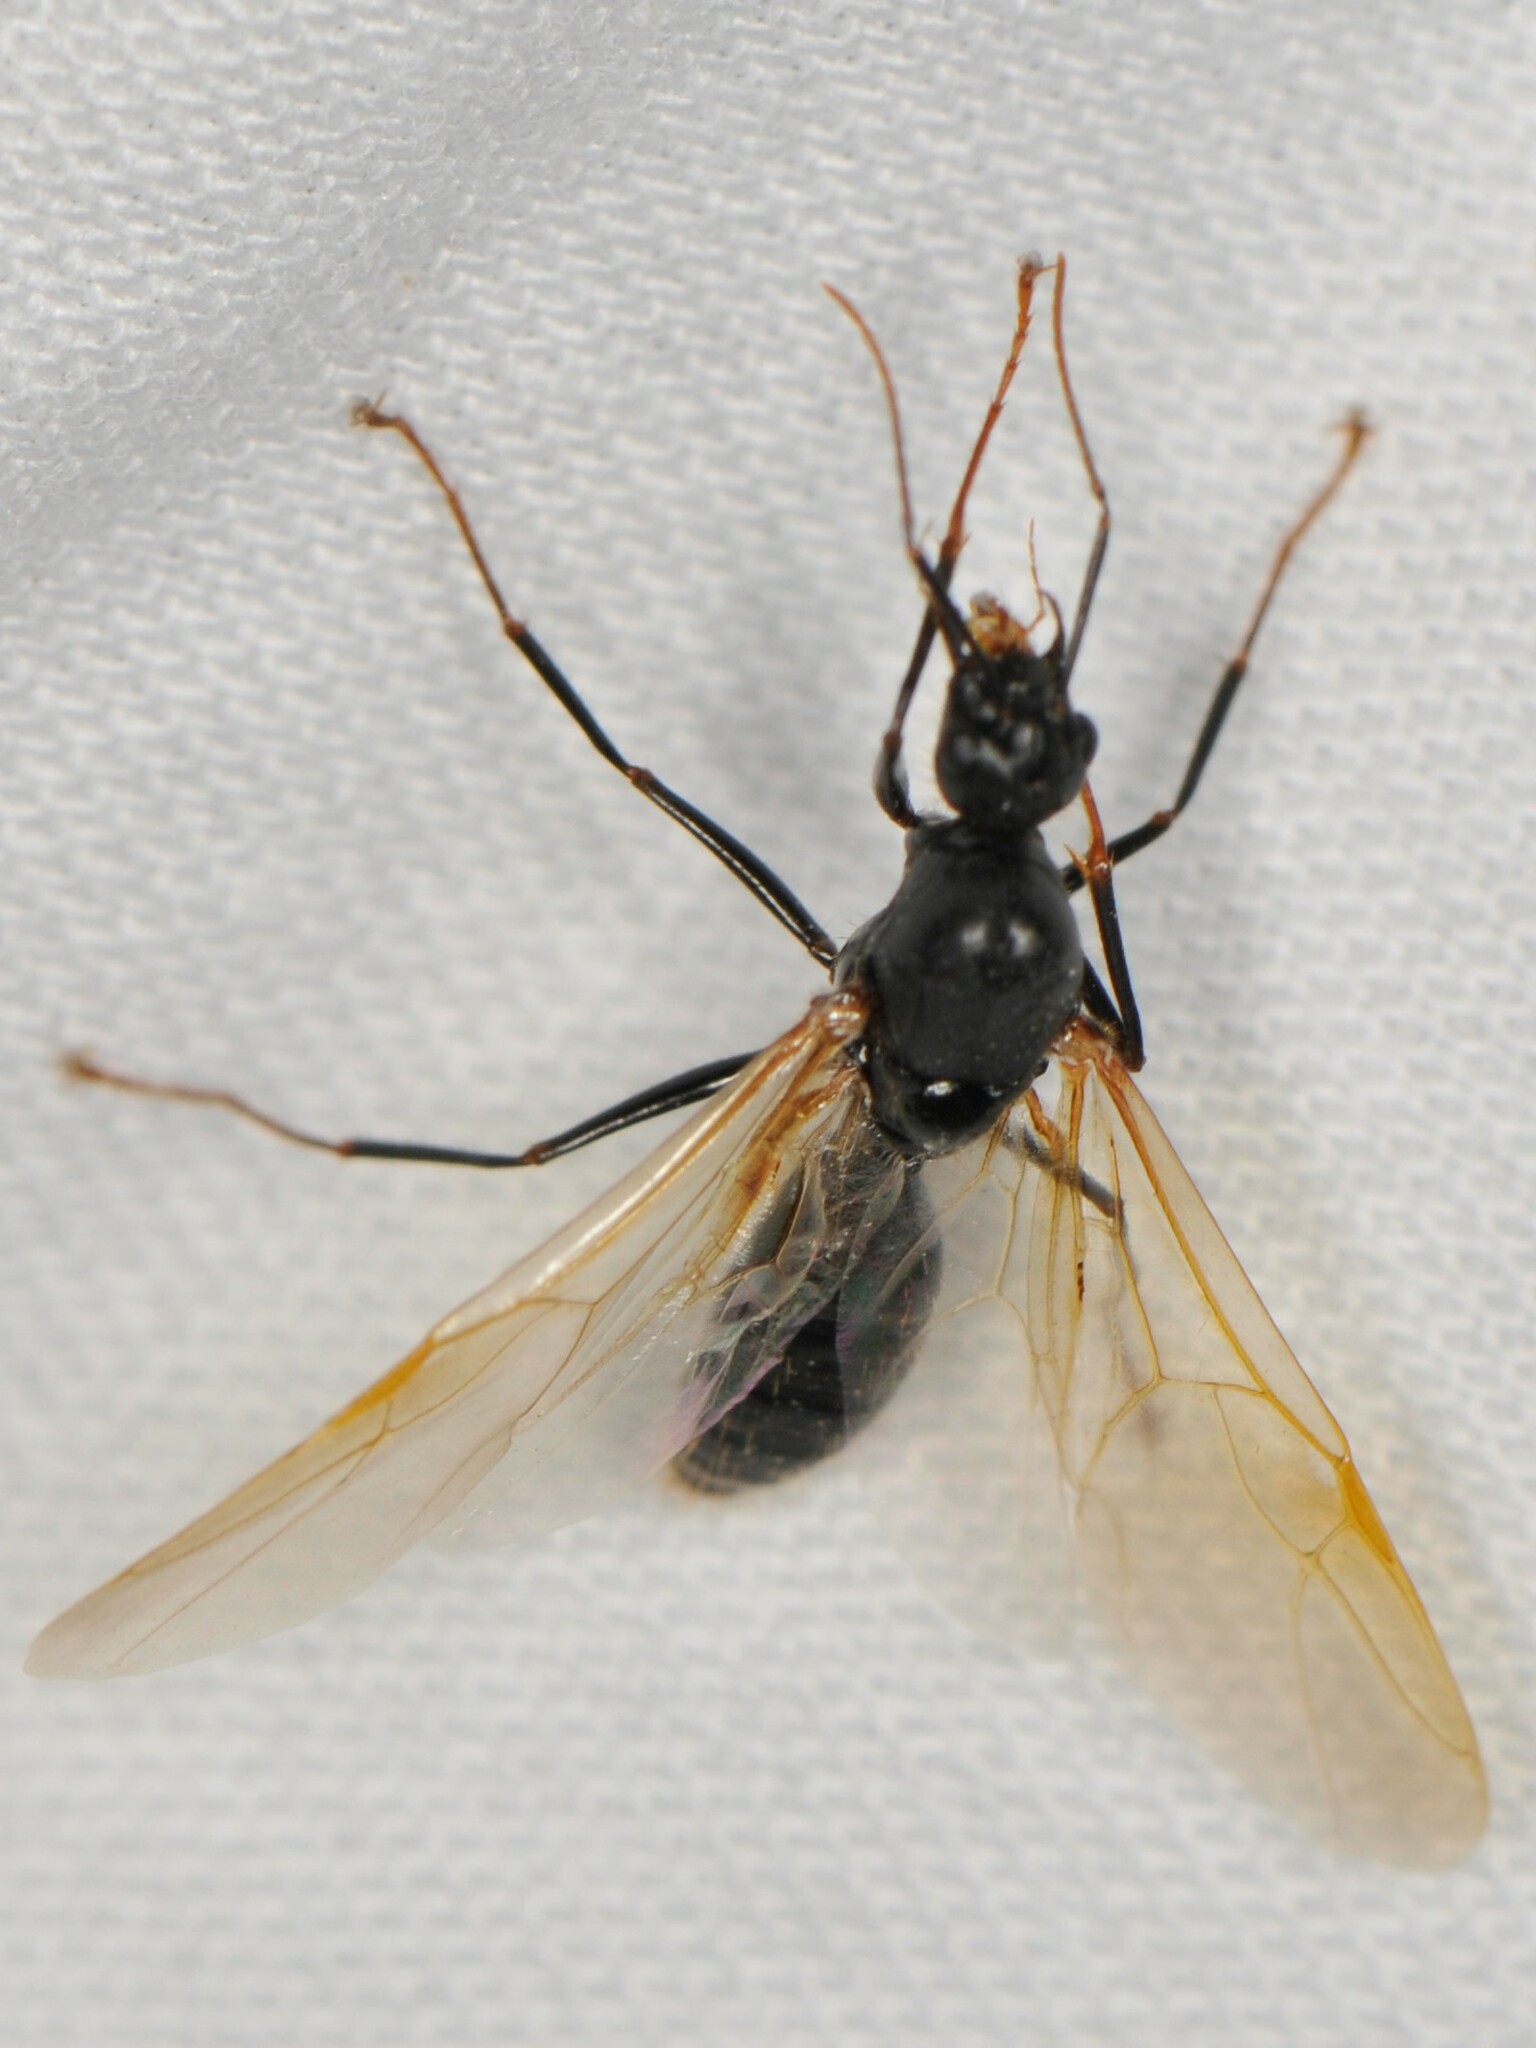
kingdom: Animalia
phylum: Arthropoda
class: Insecta
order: Hymenoptera
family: Formicidae
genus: Camponotus
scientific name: Camponotus
